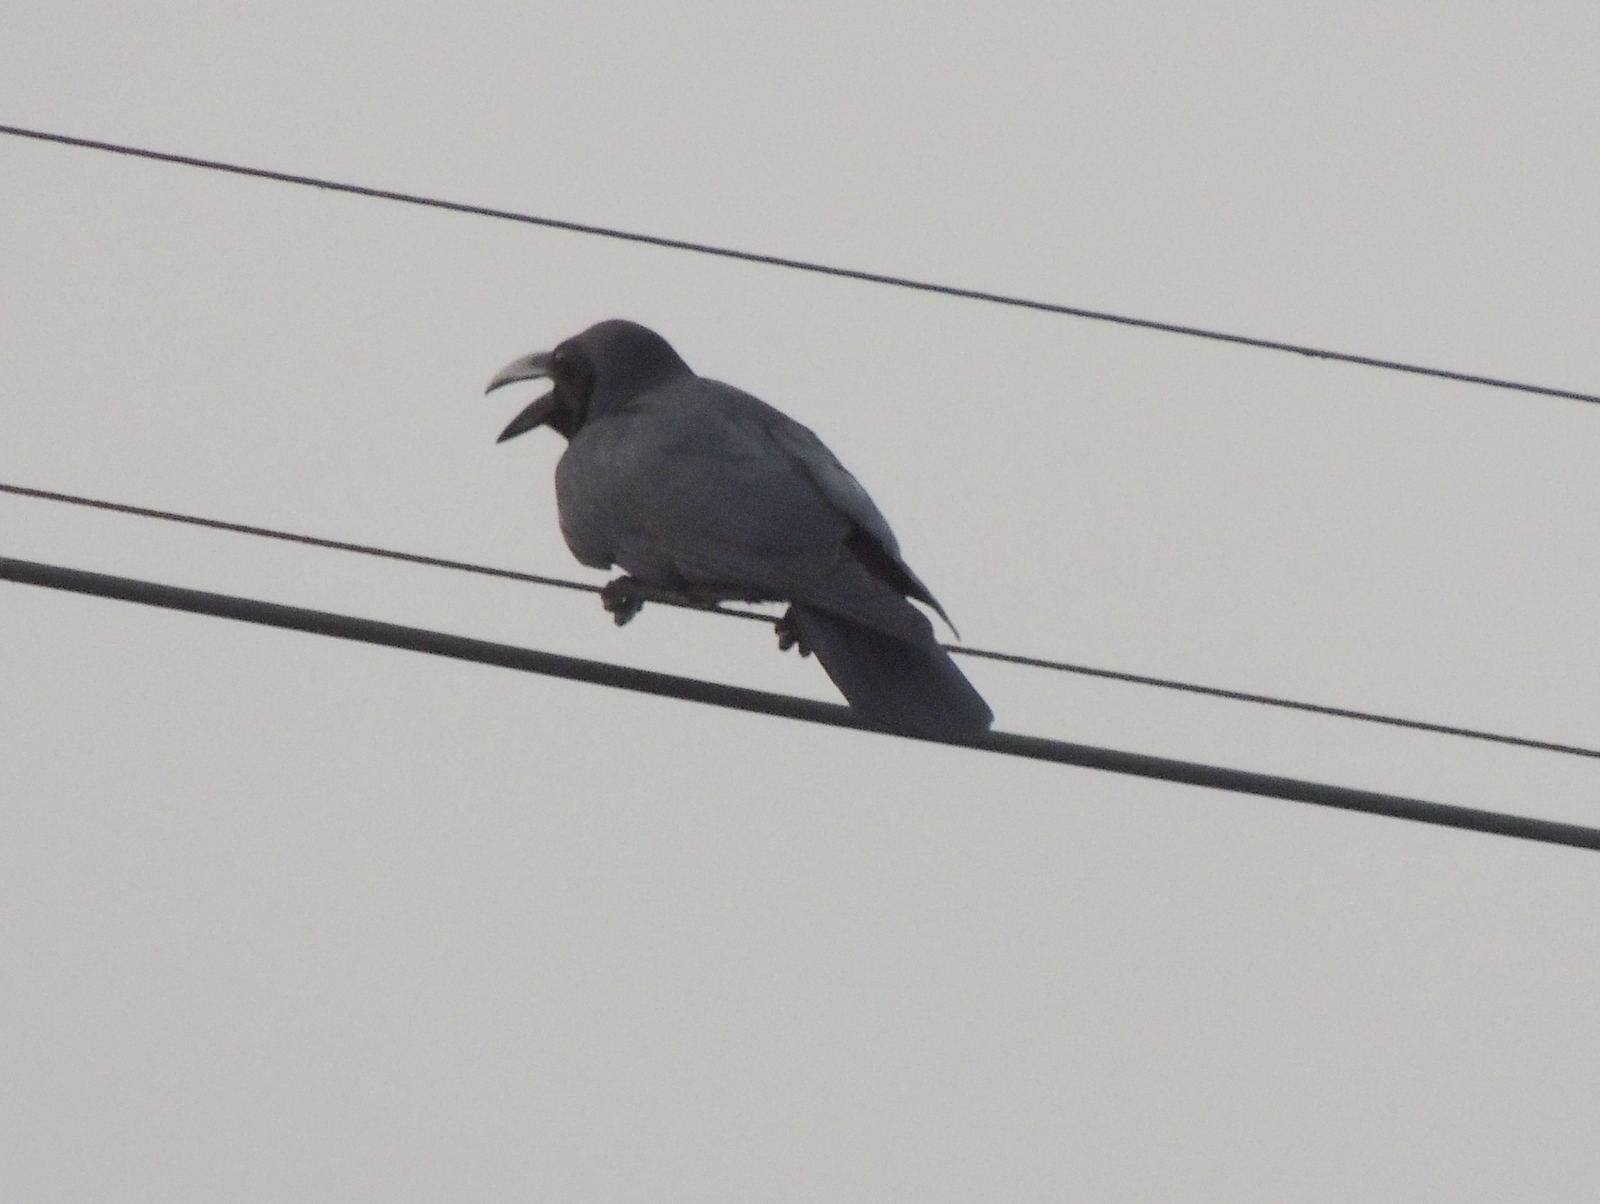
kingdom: Animalia
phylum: Chordata
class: Aves
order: Passeriformes
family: Corvidae
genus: Corvus
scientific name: Corvus macrorhynchos
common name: Large-billed crow
